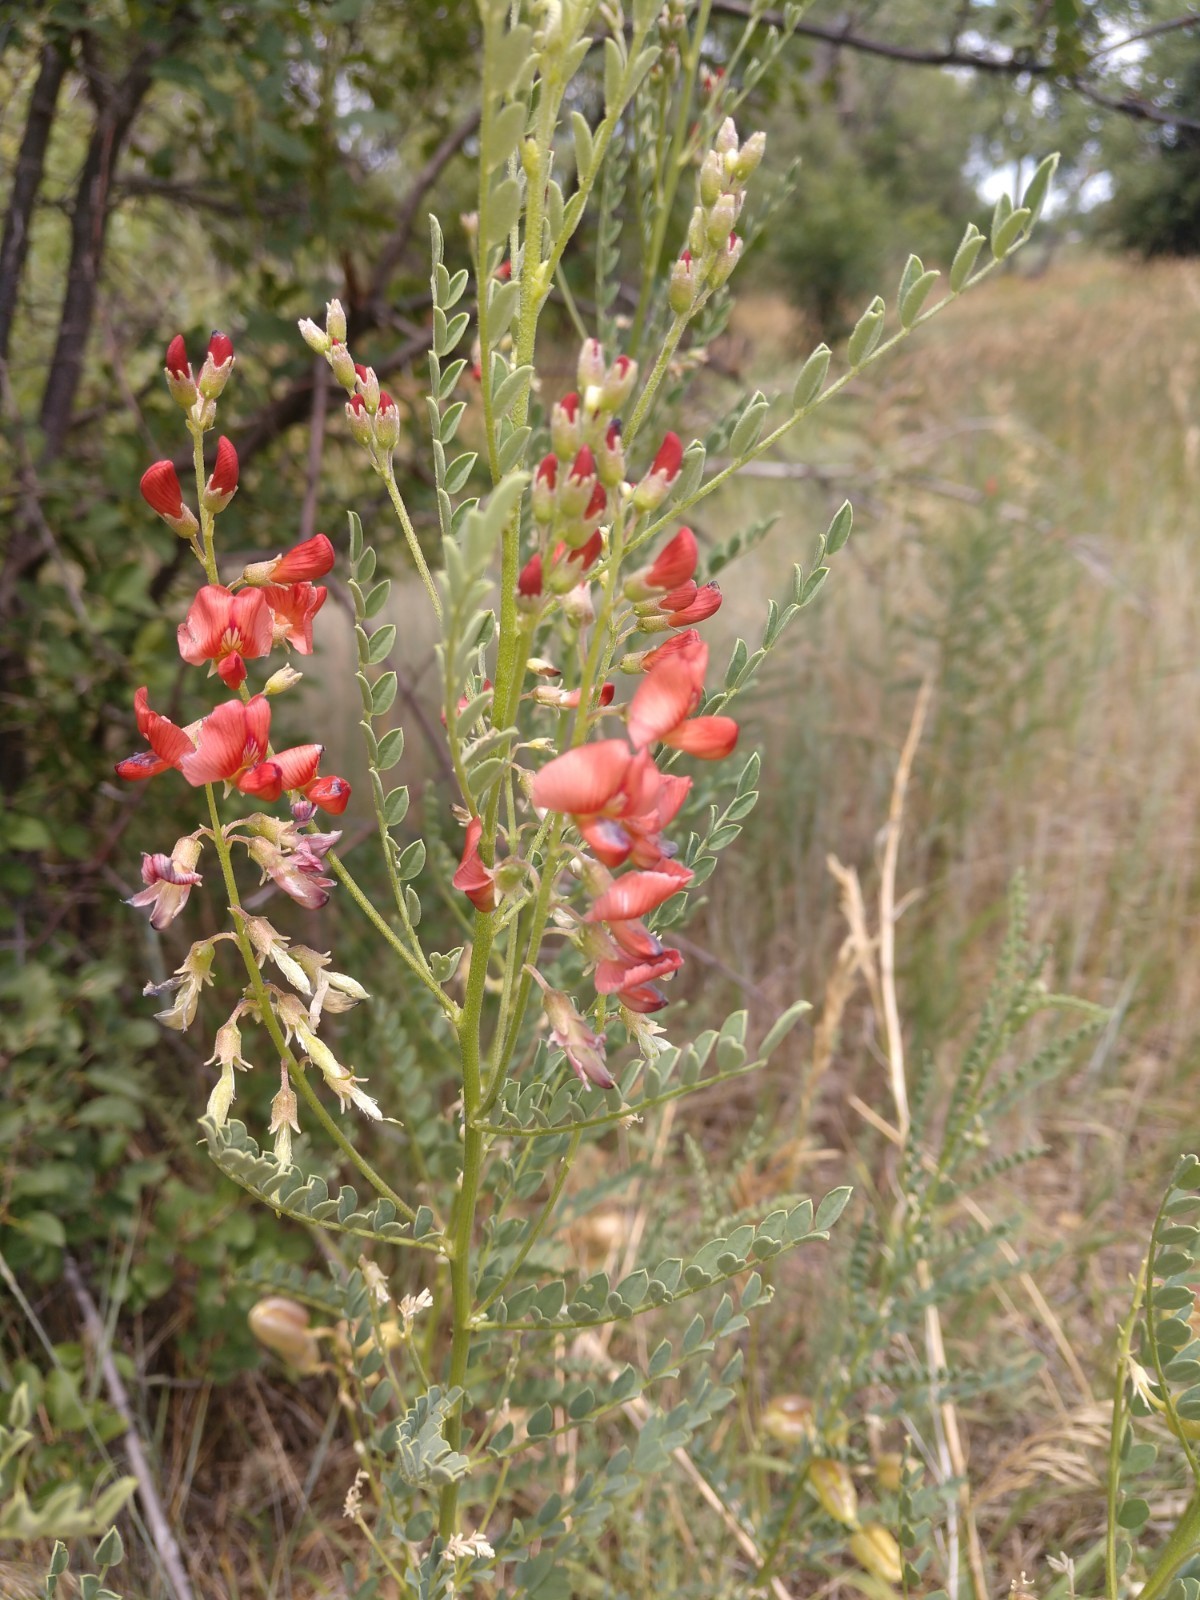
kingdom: Plantae
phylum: Tracheophyta
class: Magnoliopsida
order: Fabales
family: Fabaceae
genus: Sphaerophysa
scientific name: Sphaerophysa salsula
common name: Alkali swainsonpea
